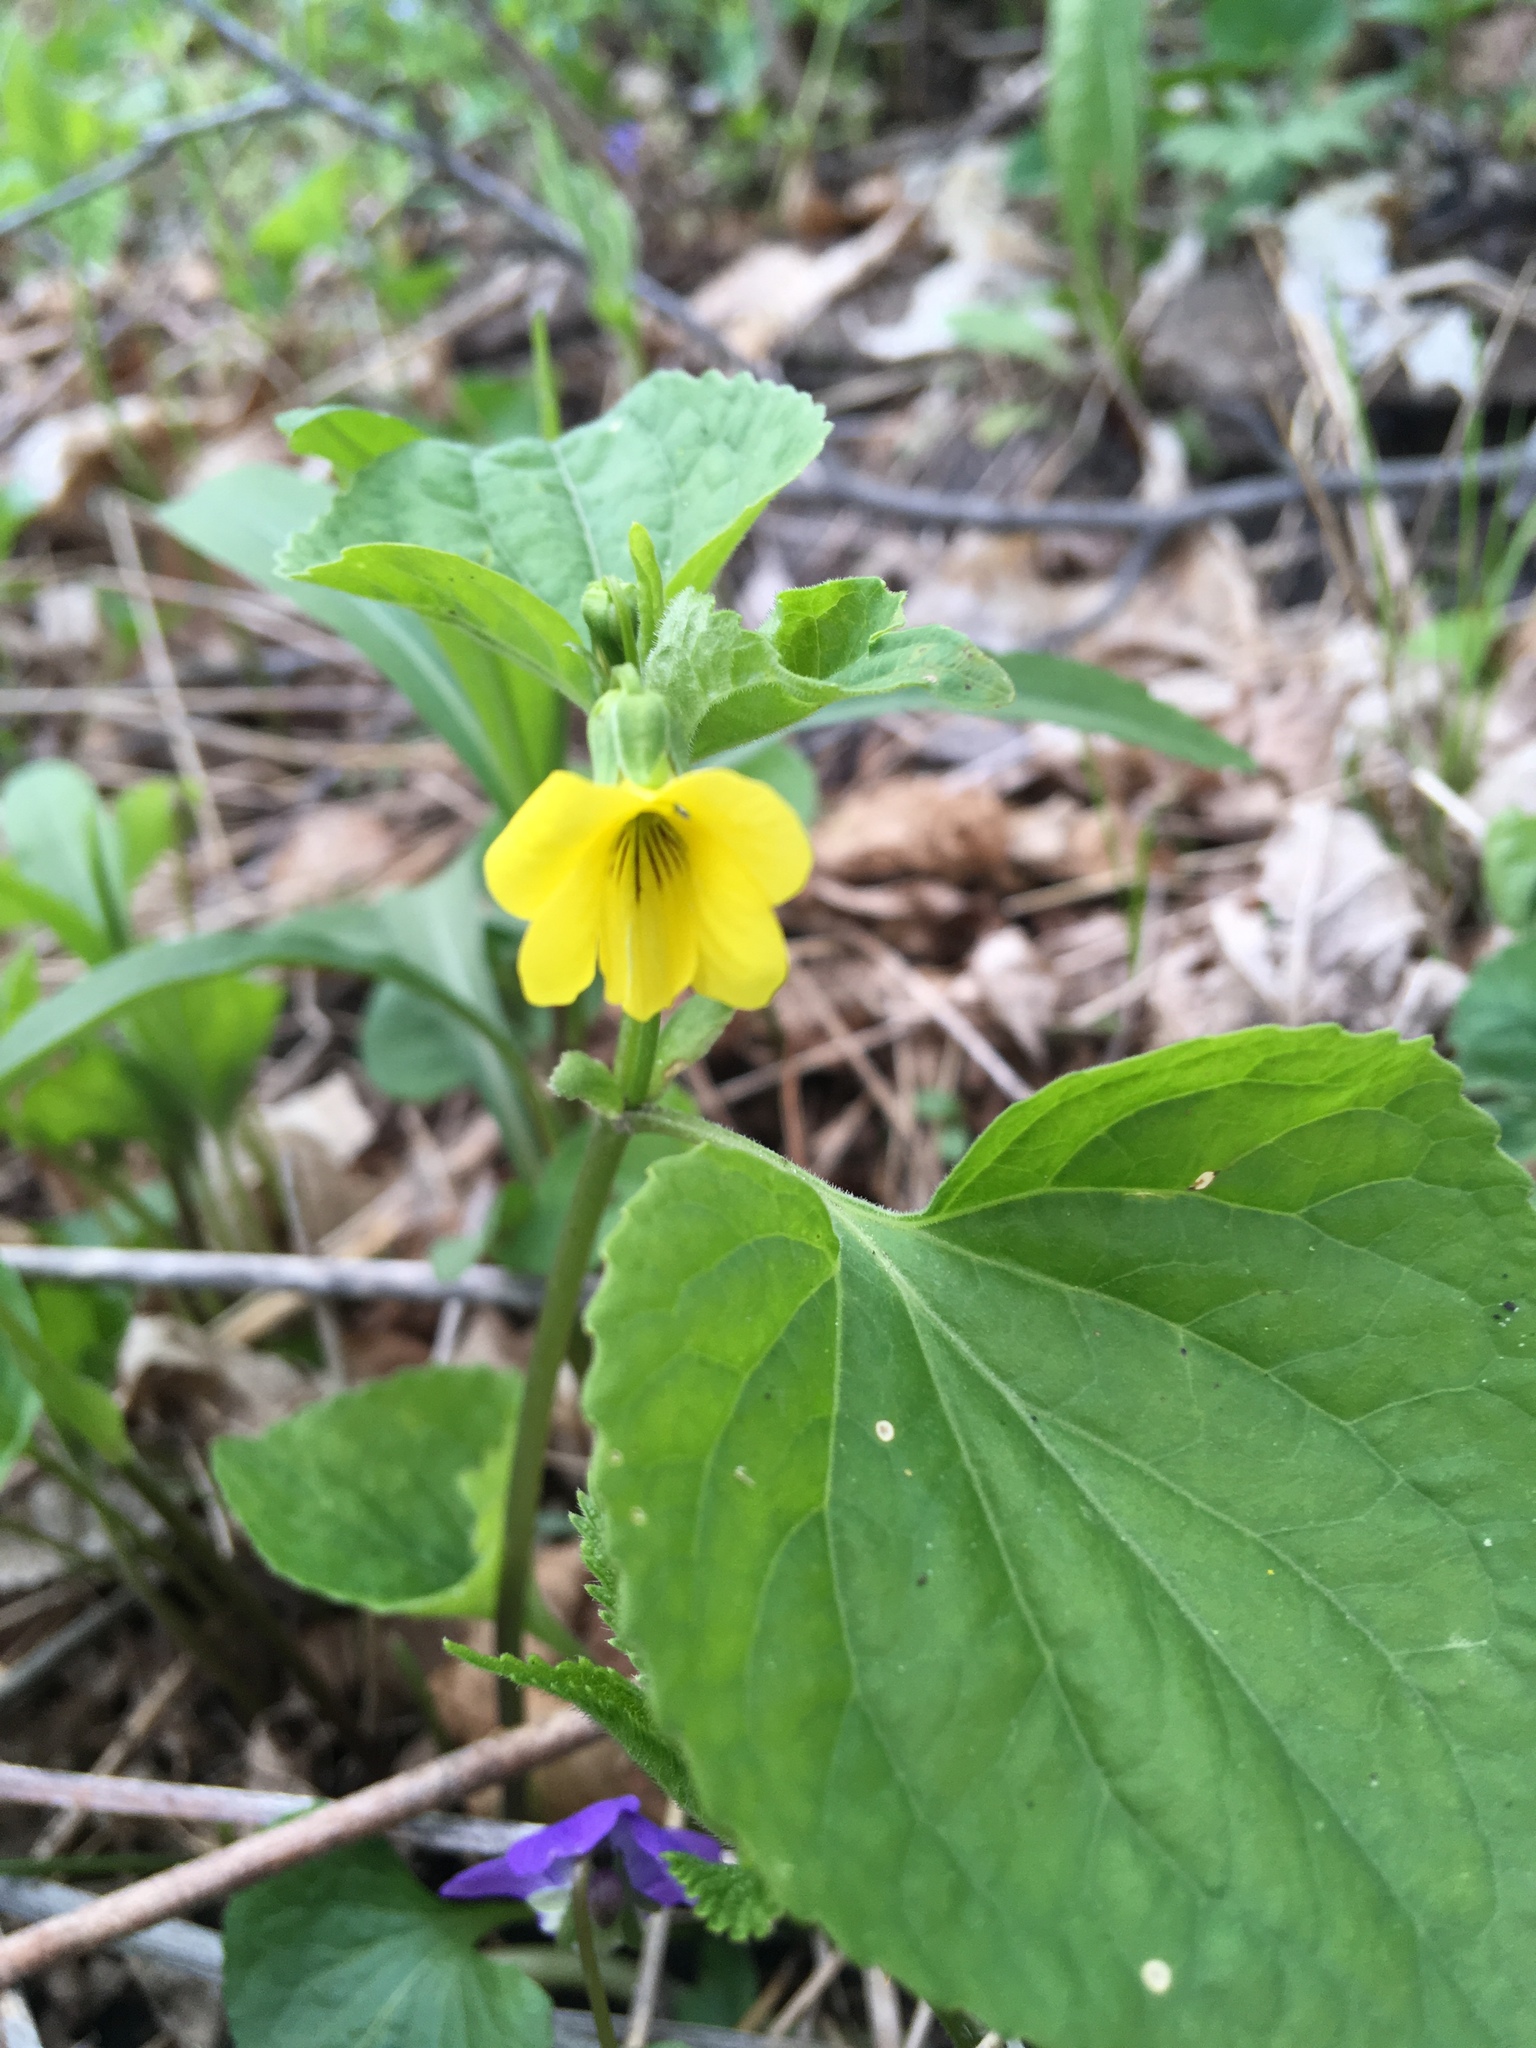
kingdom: Plantae
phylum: Tracheophyta
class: Magnoliopsida
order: Malpighiales
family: Violaceae
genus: Viola
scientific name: Viola eriocarpa
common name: Smooth yellow violet
